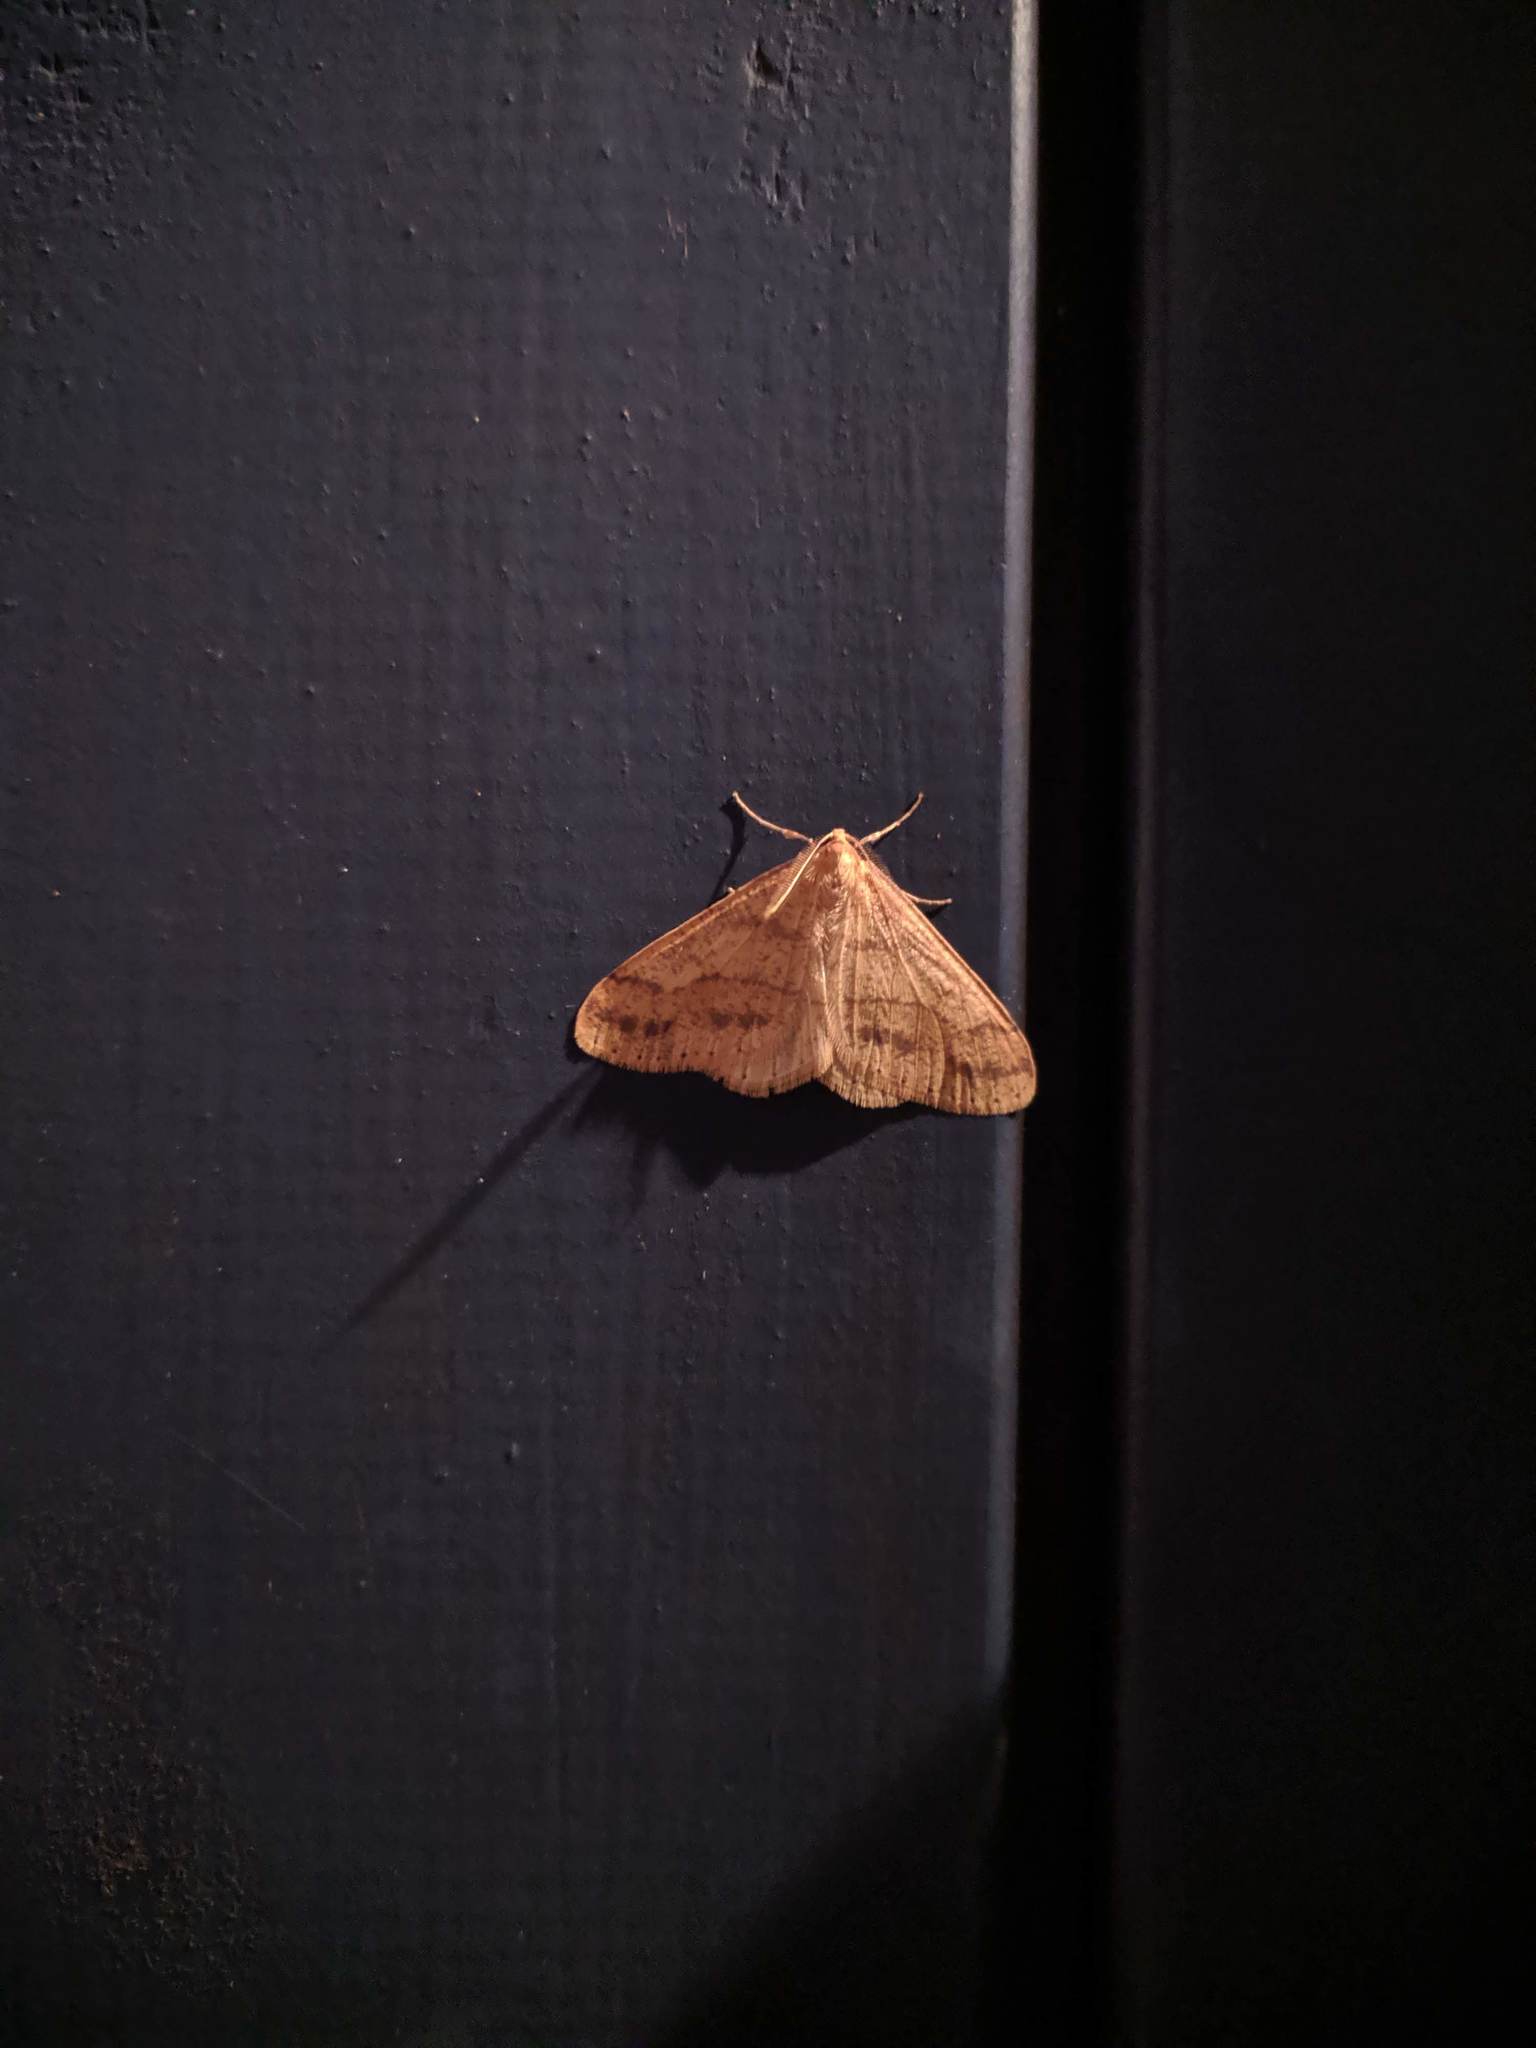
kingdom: Animalia
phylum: Arthropoda
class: Insecta
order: Lepidoptera
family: Geometridae
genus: Agriopis
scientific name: Agriopis aurantiaria
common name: Scarce umber
